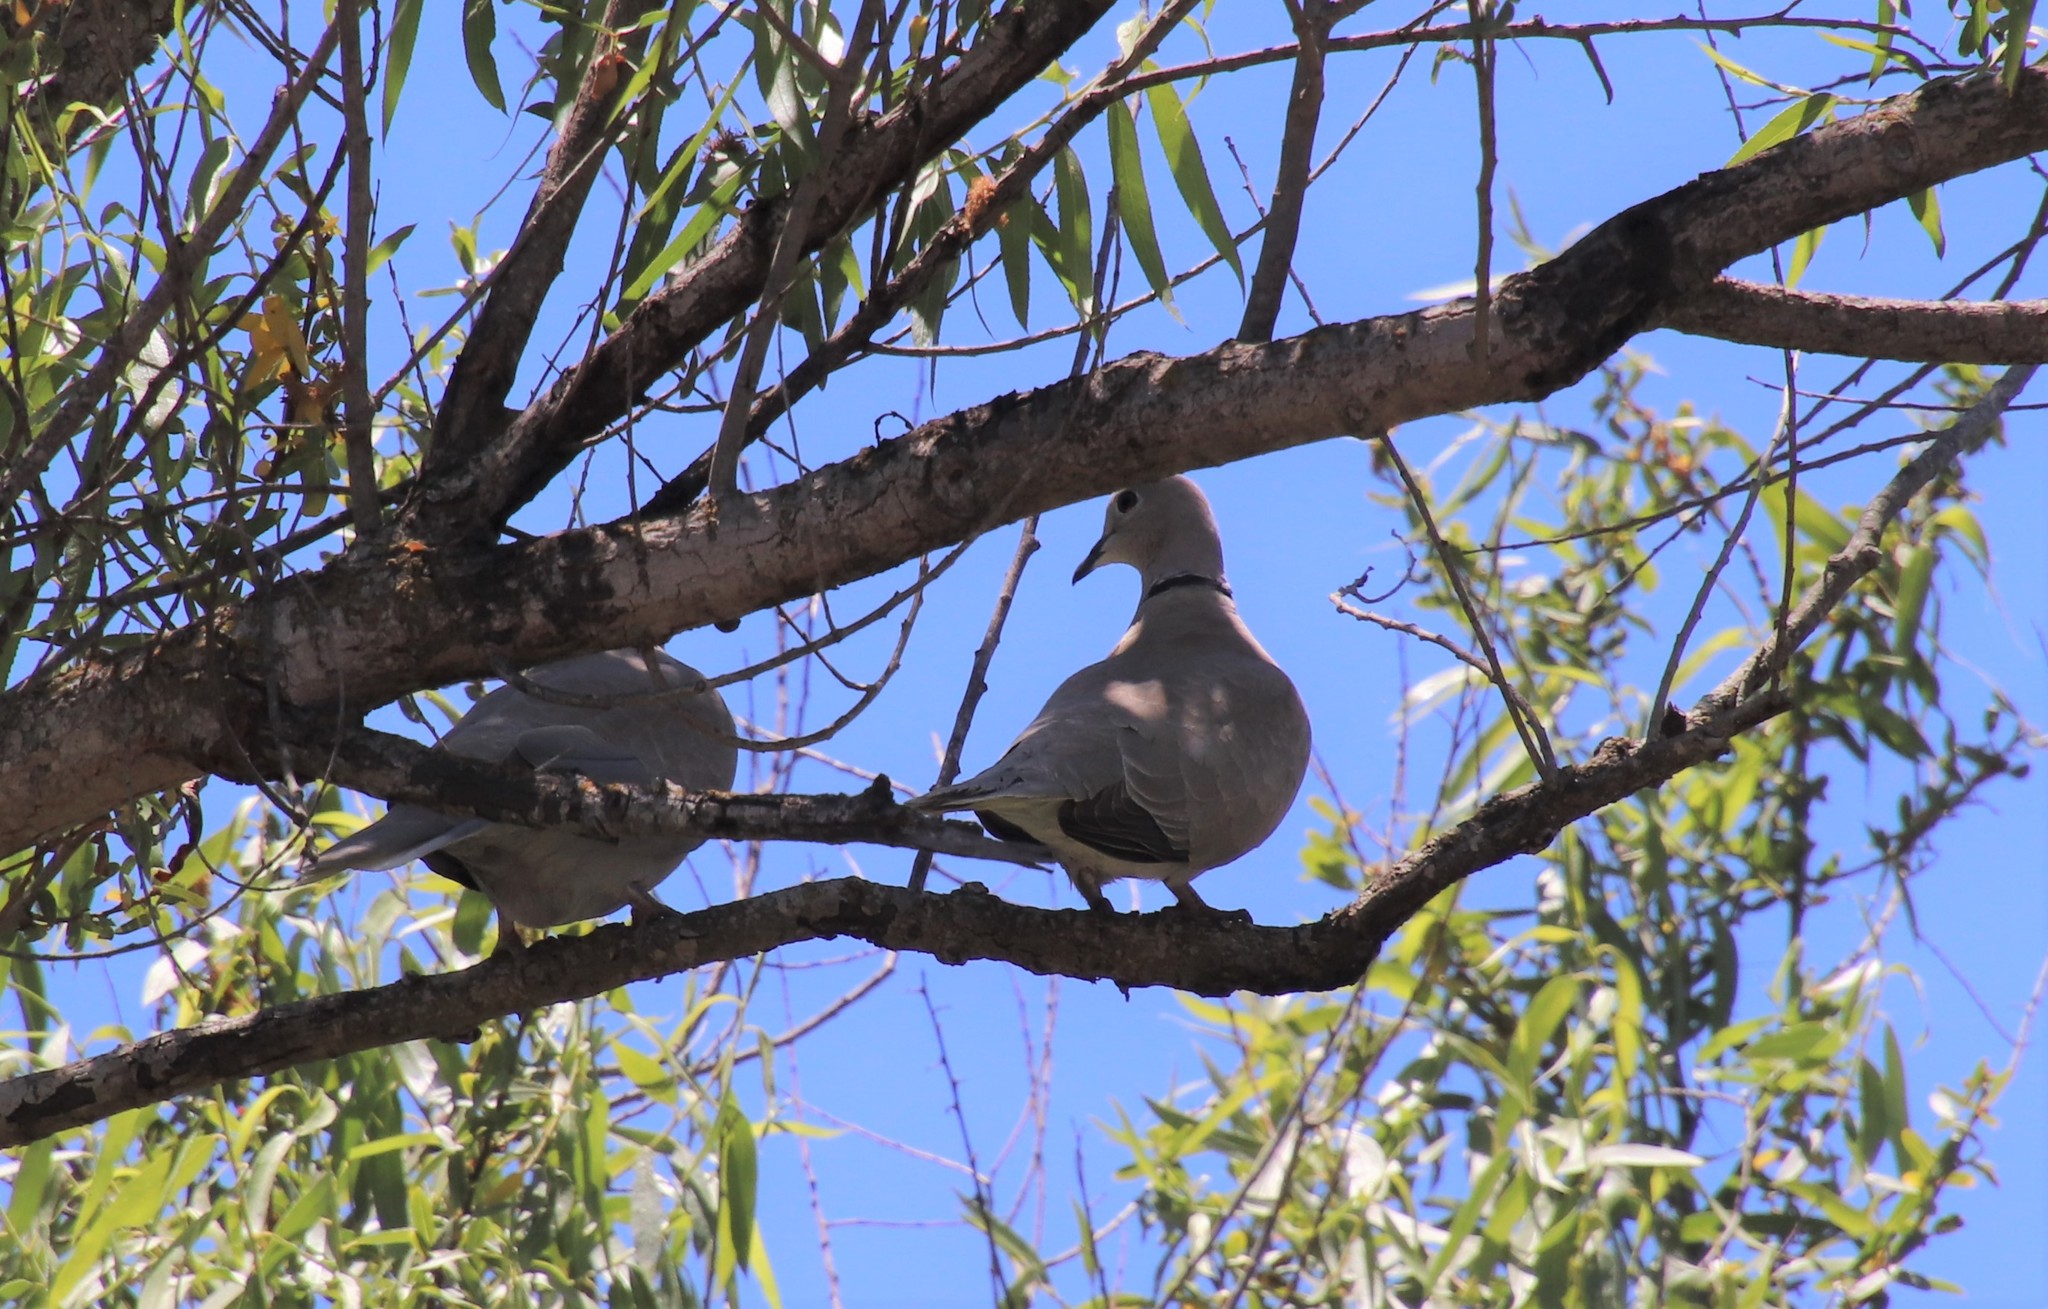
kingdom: Animalia
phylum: Chordata
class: Aves
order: Columbiformes
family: Columbidae
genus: Streptopelia
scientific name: Streptopelia decaocto
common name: Eurasian collared dove
